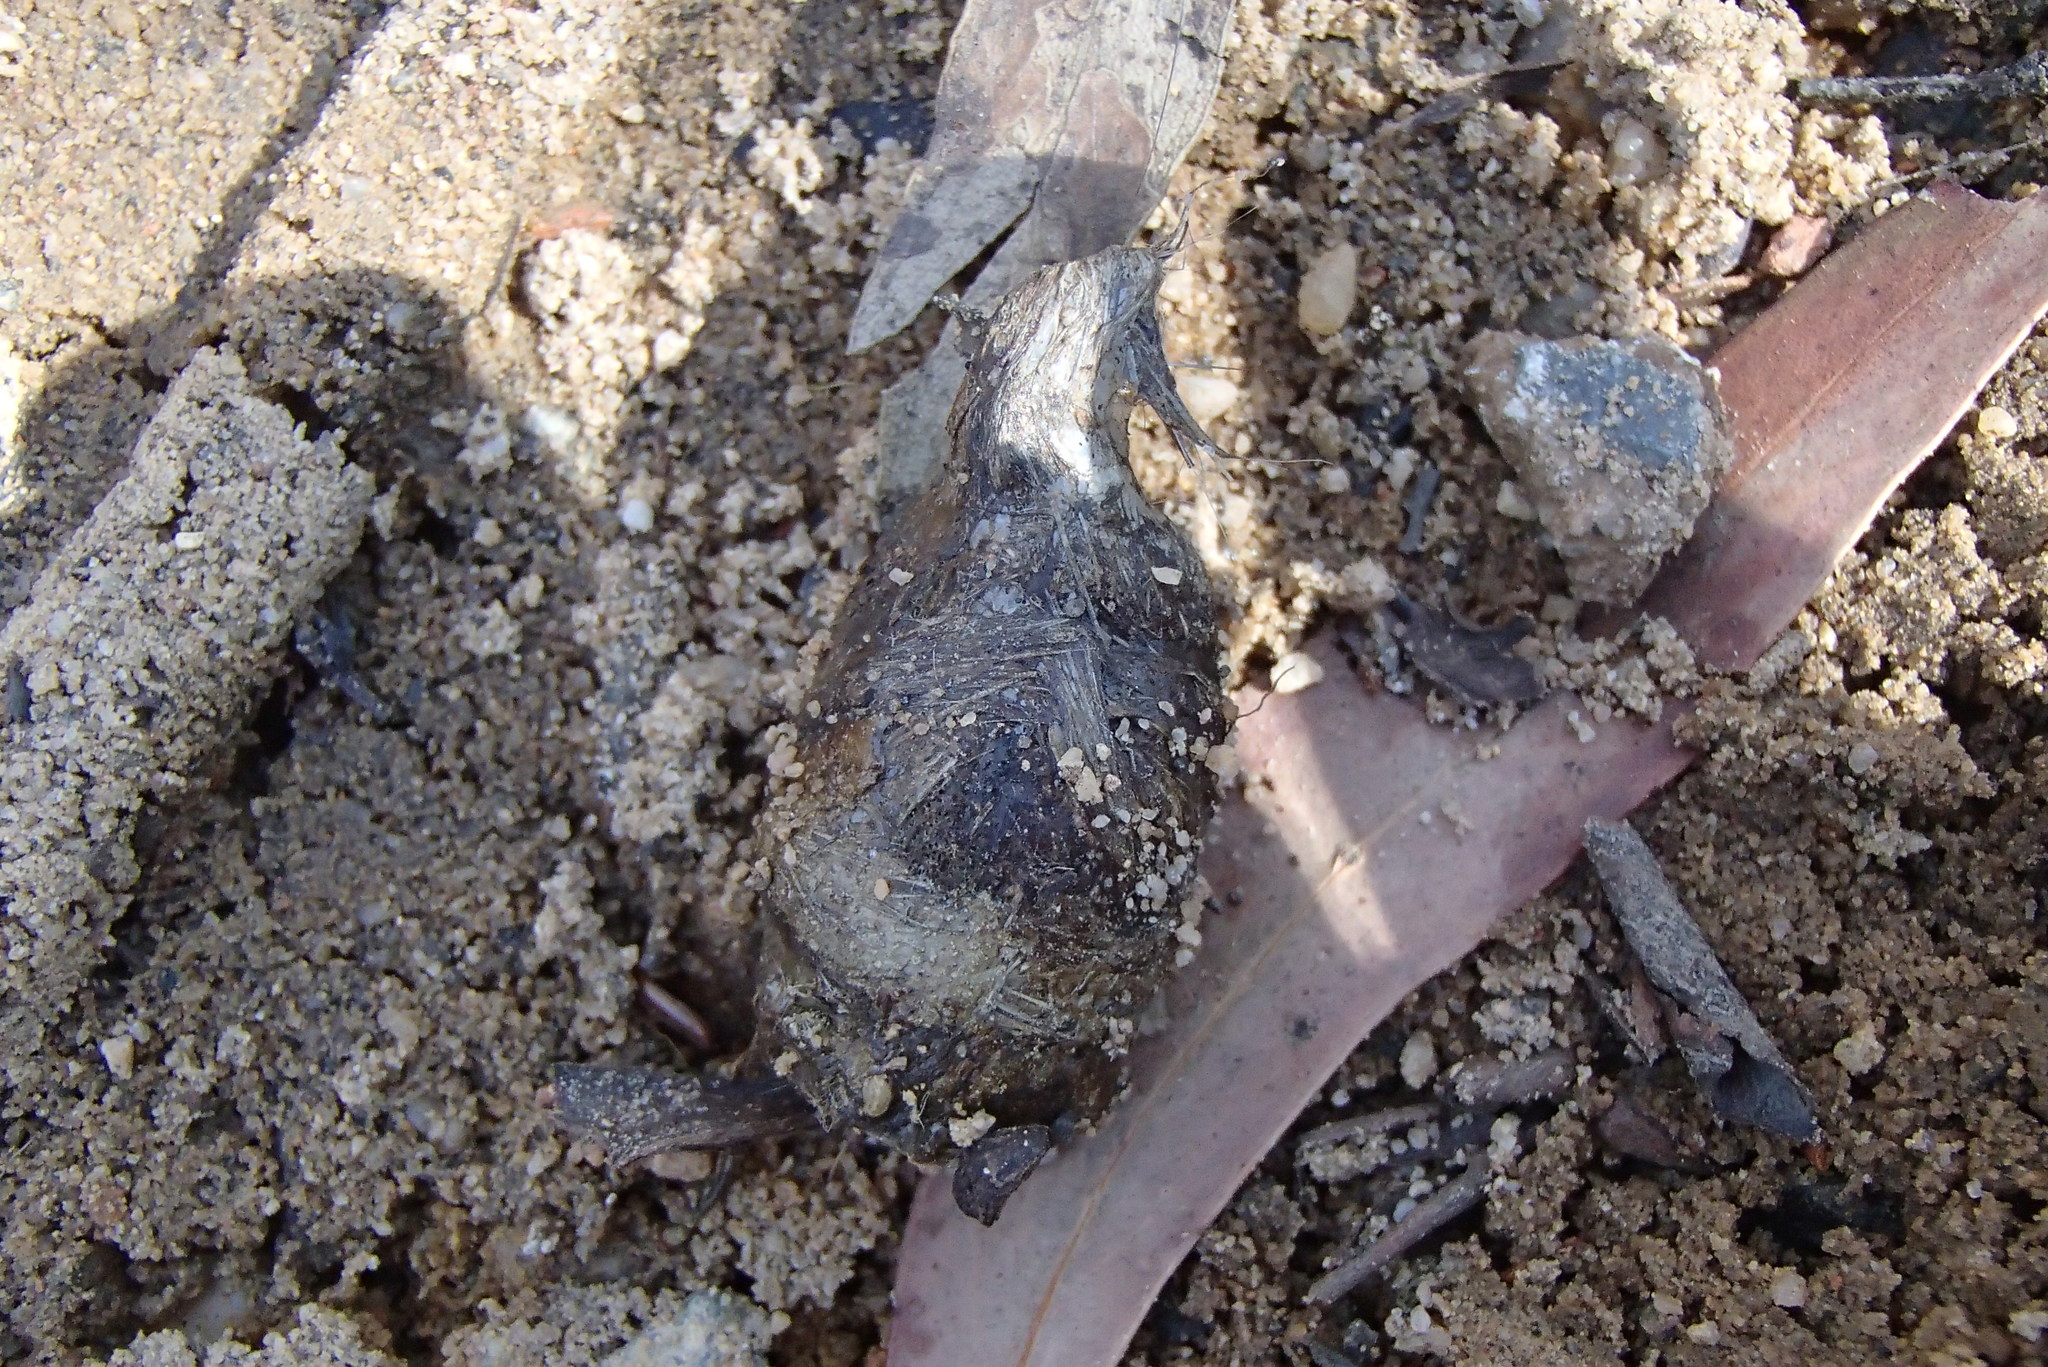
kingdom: Animalia
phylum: Chordata
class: Mammalia
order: Dasyuromorphia
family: Dasyuridae
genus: Dasyurus
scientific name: Dasyurus maculatus
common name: Tiger quoll
